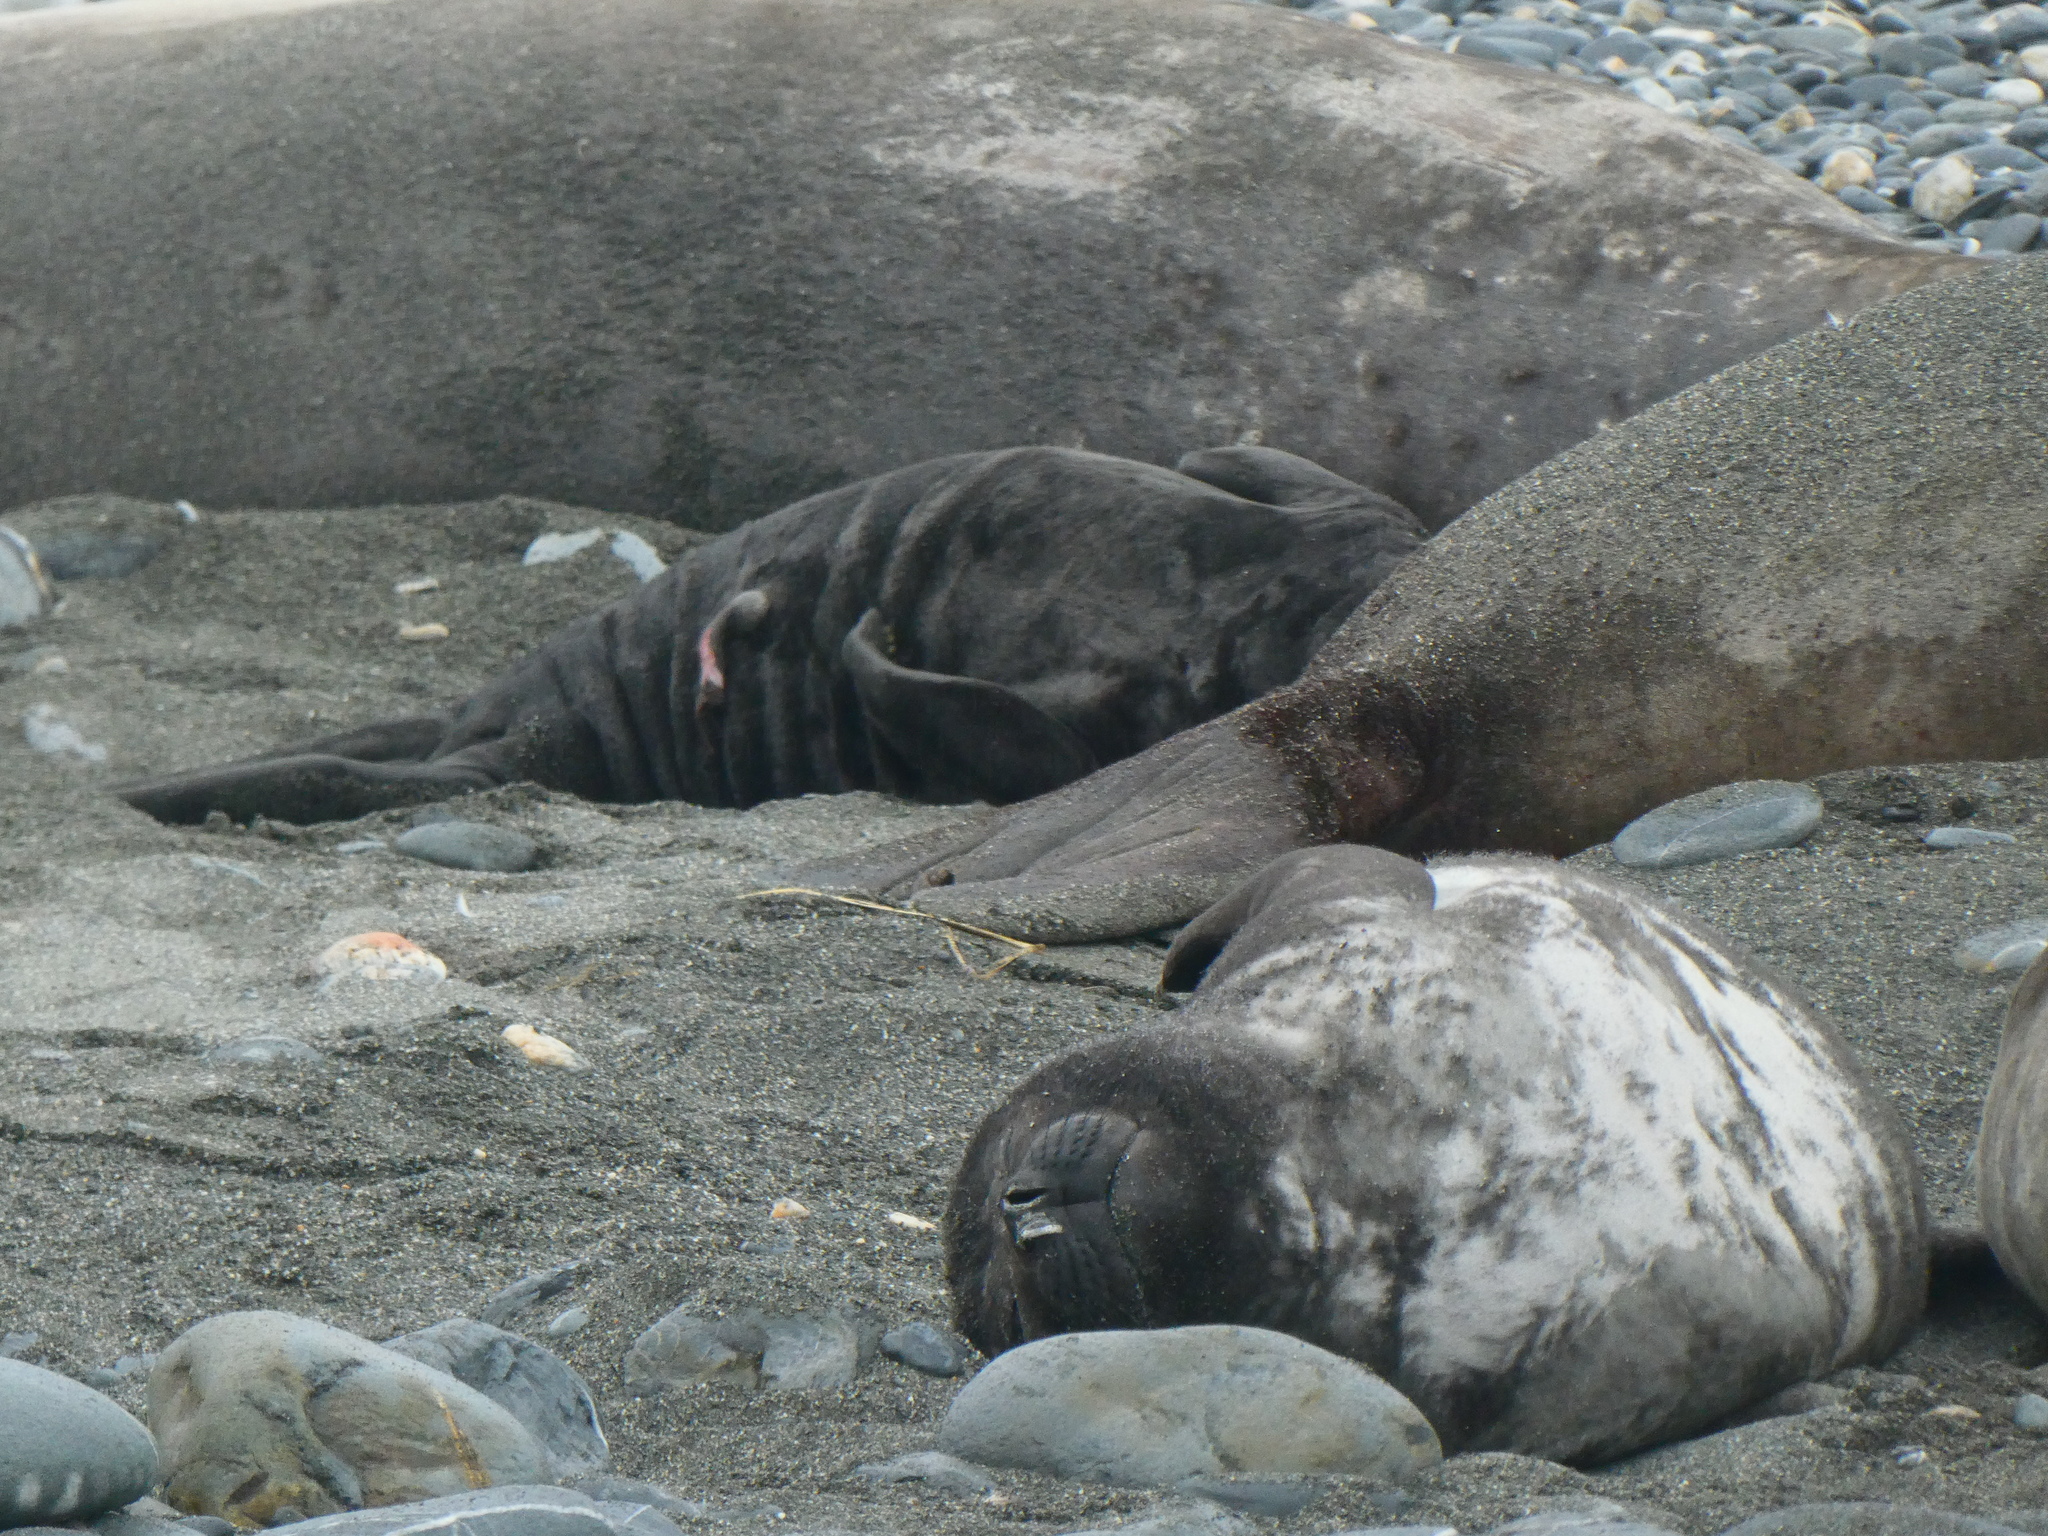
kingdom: Animalia
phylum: Chordata
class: Mammalia
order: Carnivora
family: Phocidae
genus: Mirounga
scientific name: Mirounga leonina
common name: Southern elephant seal
